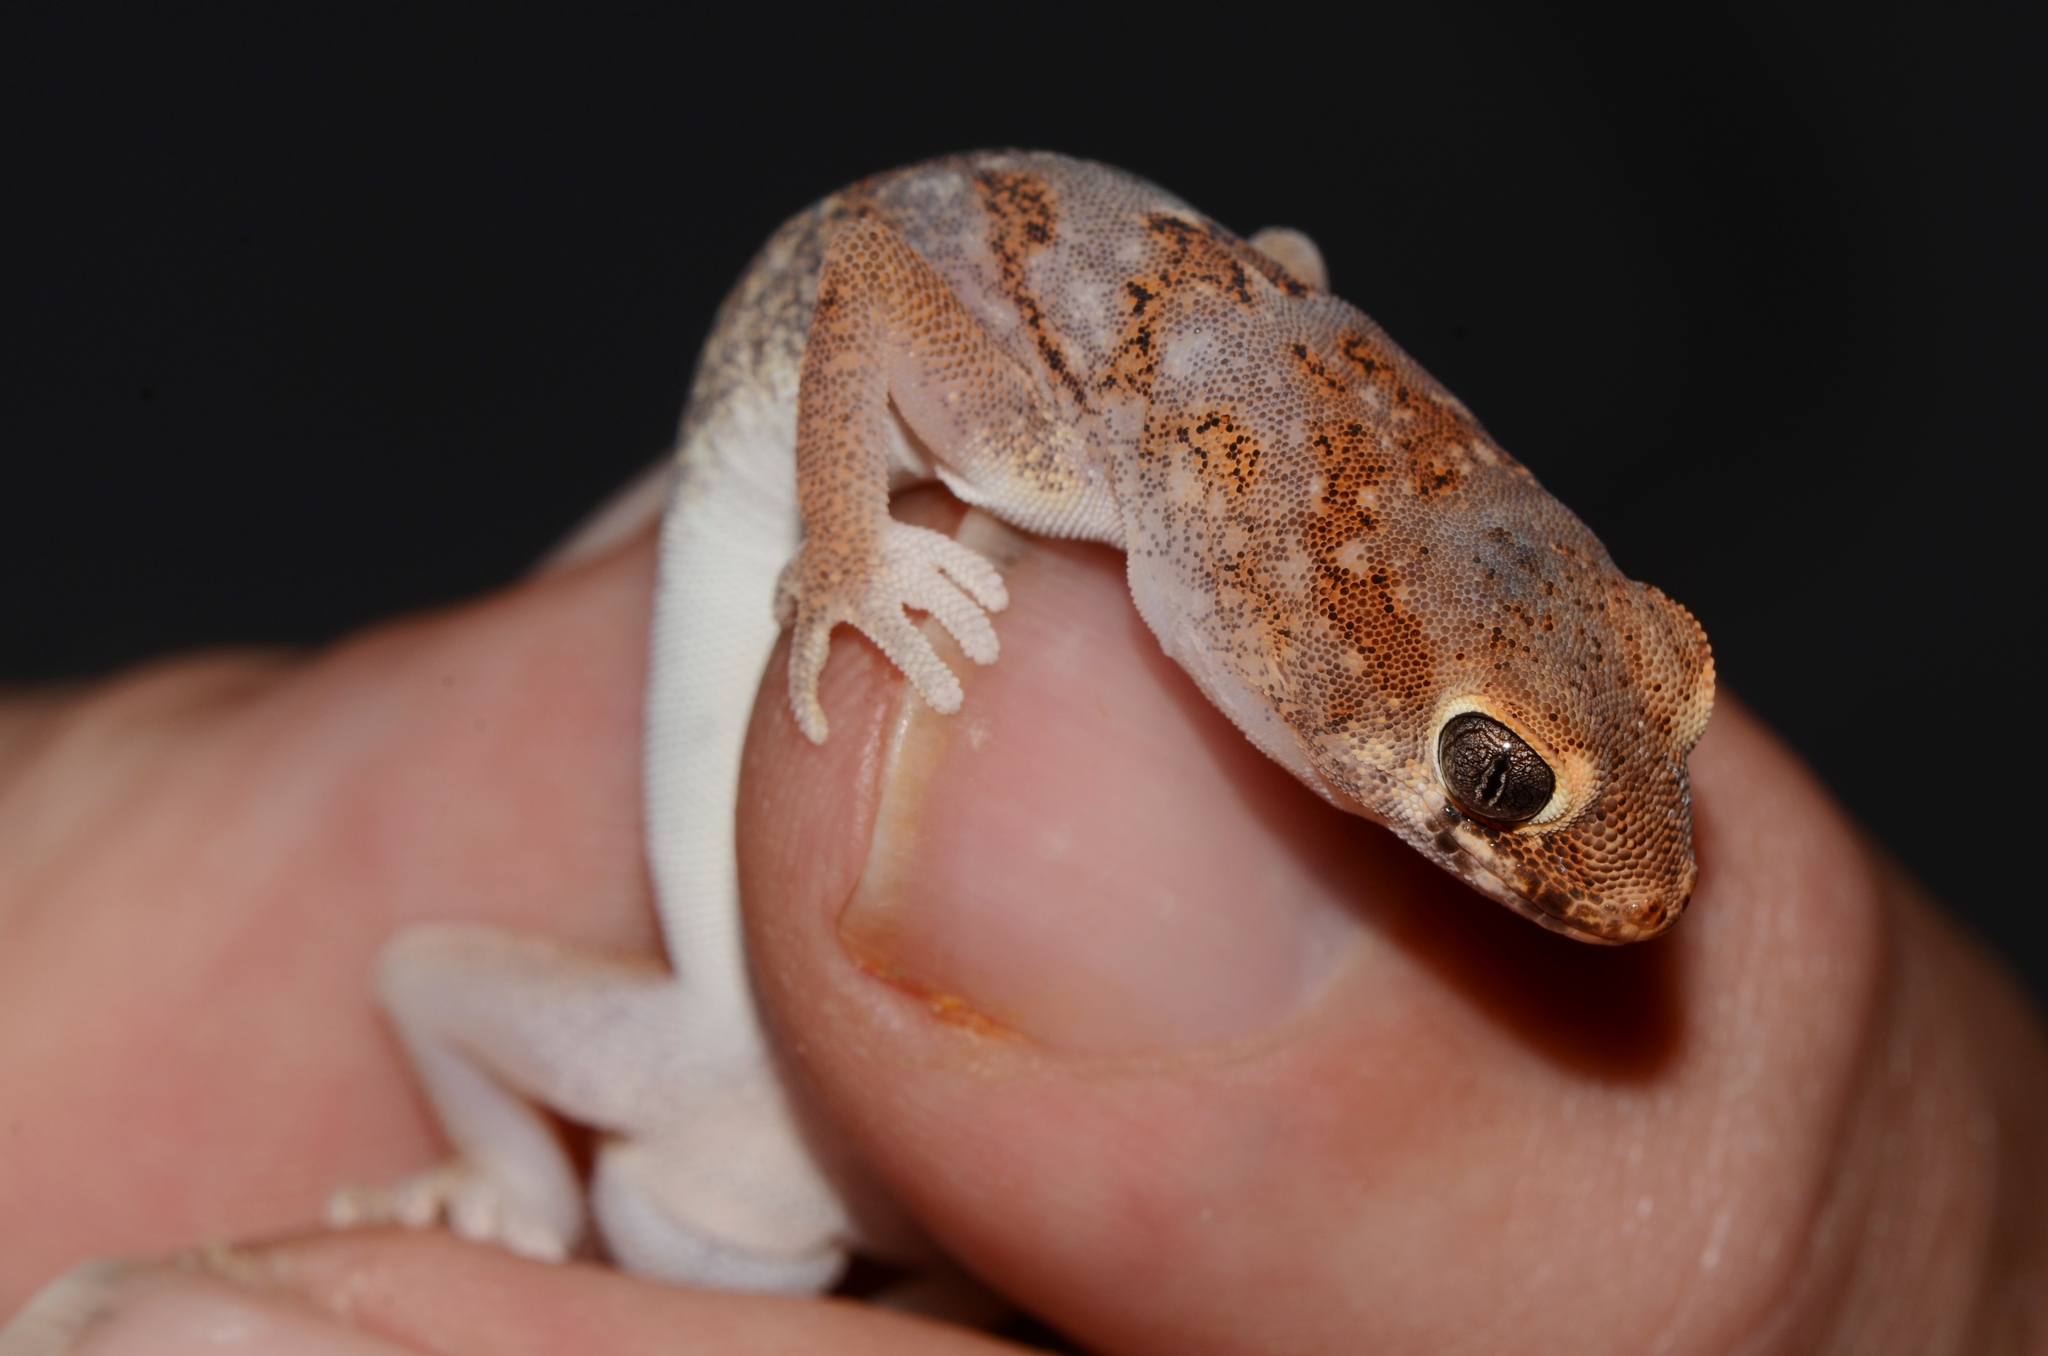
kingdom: Animalia
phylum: Chordata
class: Squamata
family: Gekkonidae
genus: Pachydactylus
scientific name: Pachydactylus latirostris
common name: Quartz gecko
